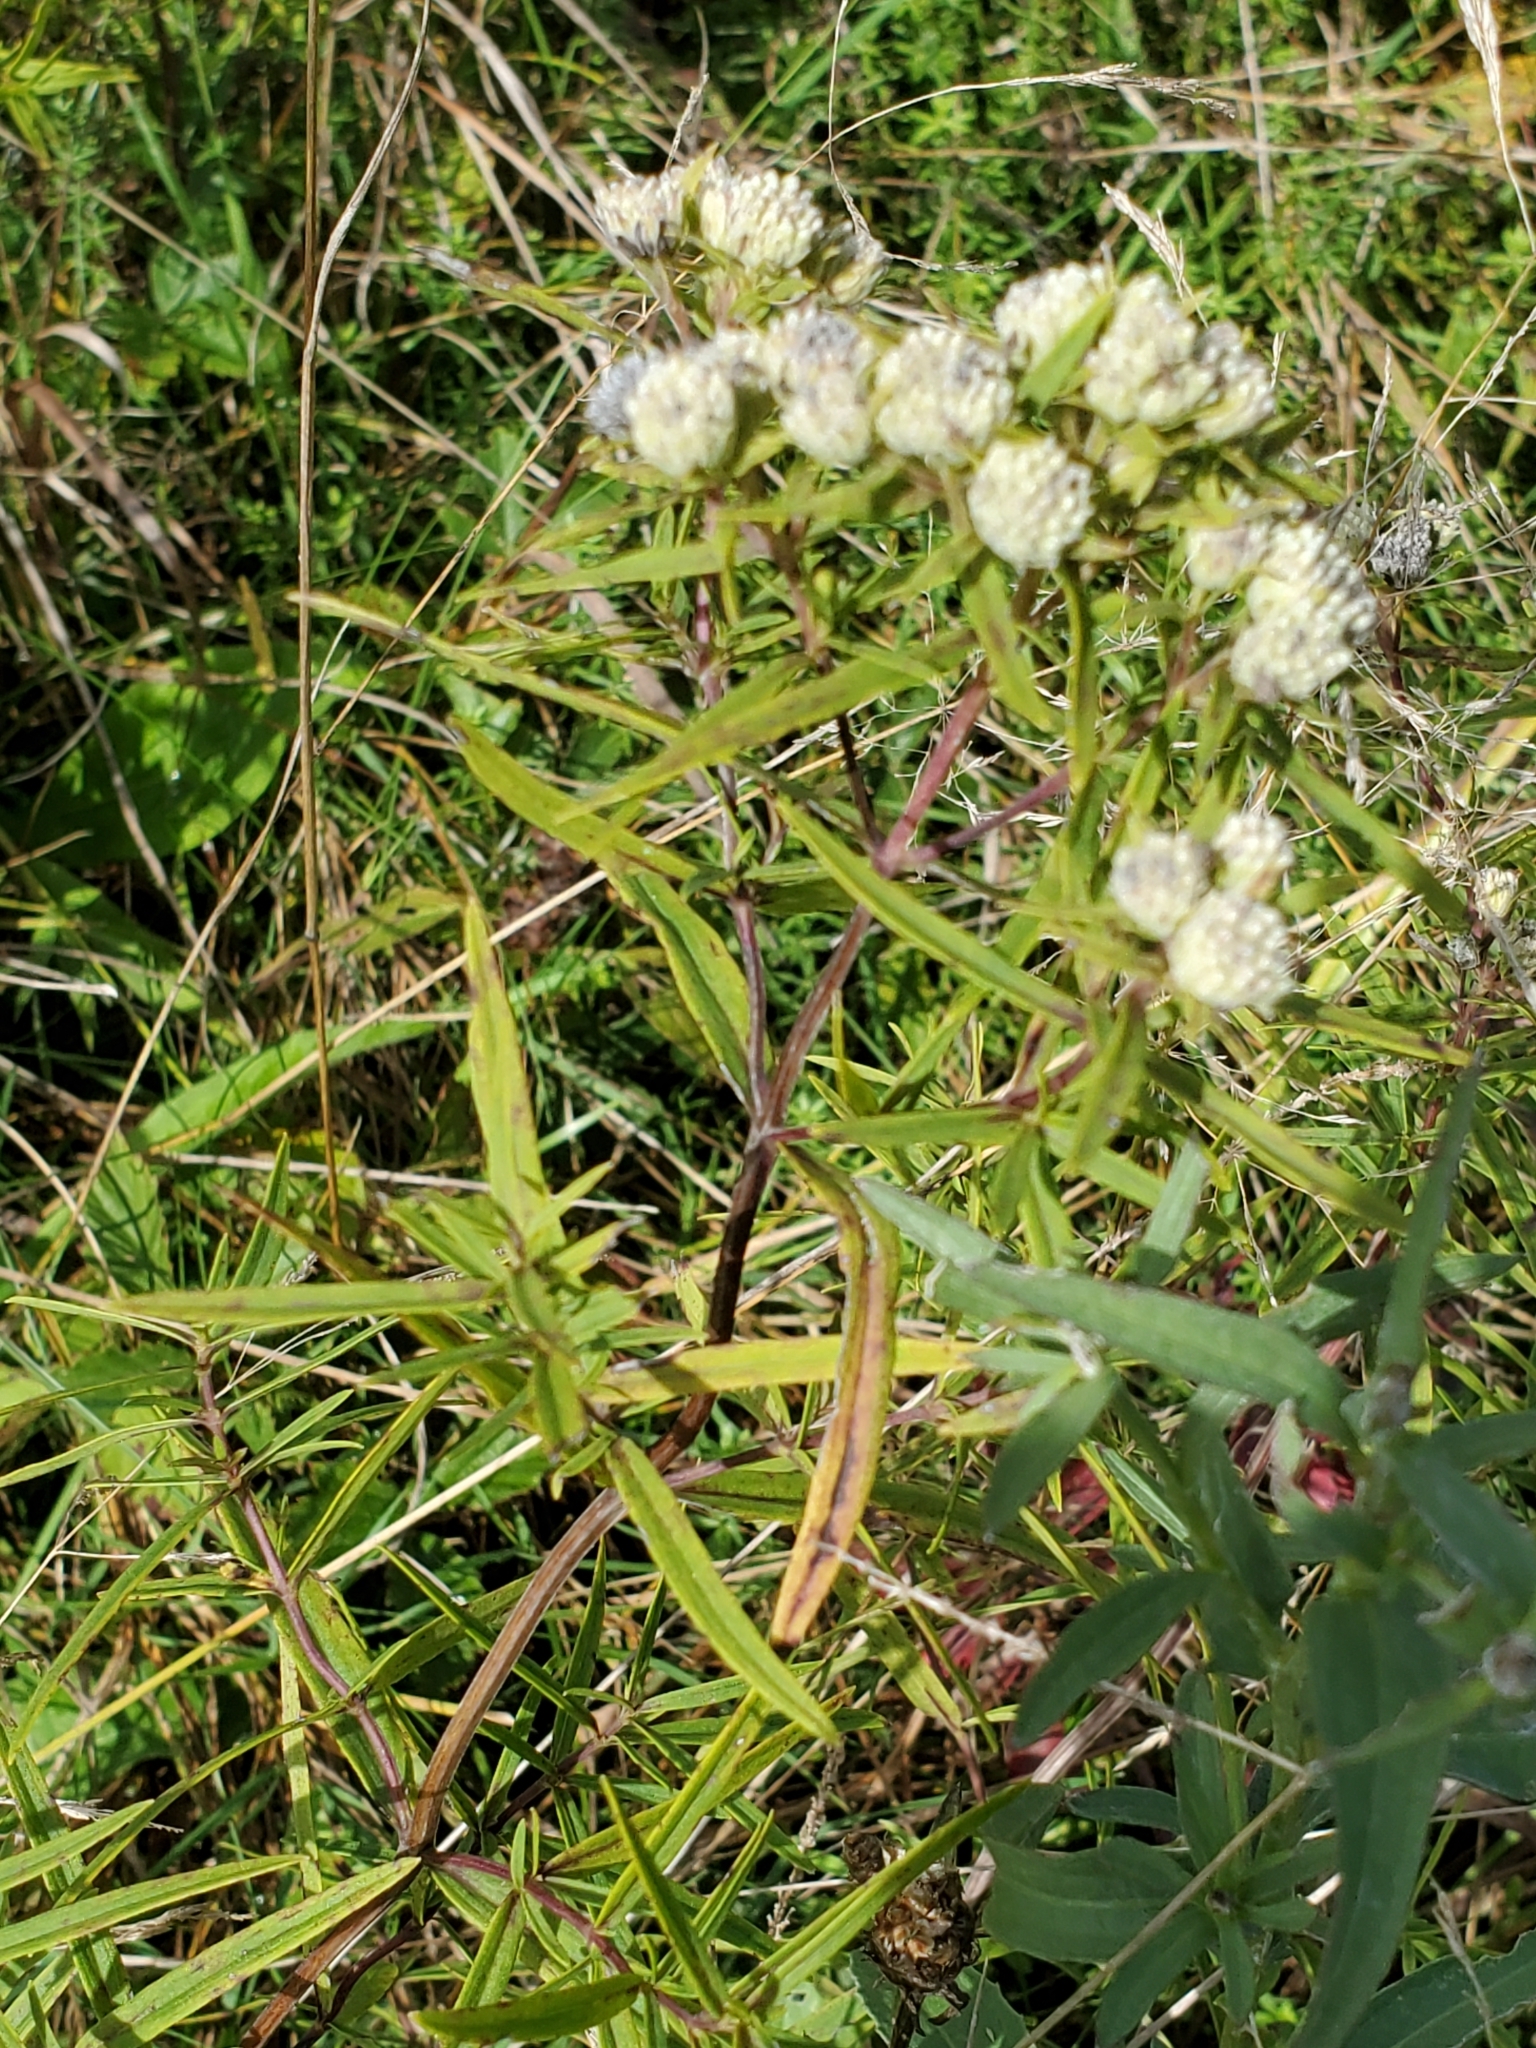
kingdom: Plantae
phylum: Tracheophyta
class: Magnoliopsida
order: Lamiales
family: Lamiaceae
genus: Pycnanthemum
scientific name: Pycnanthemum tenuifolium
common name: Narrow-leaf mountain-mint
